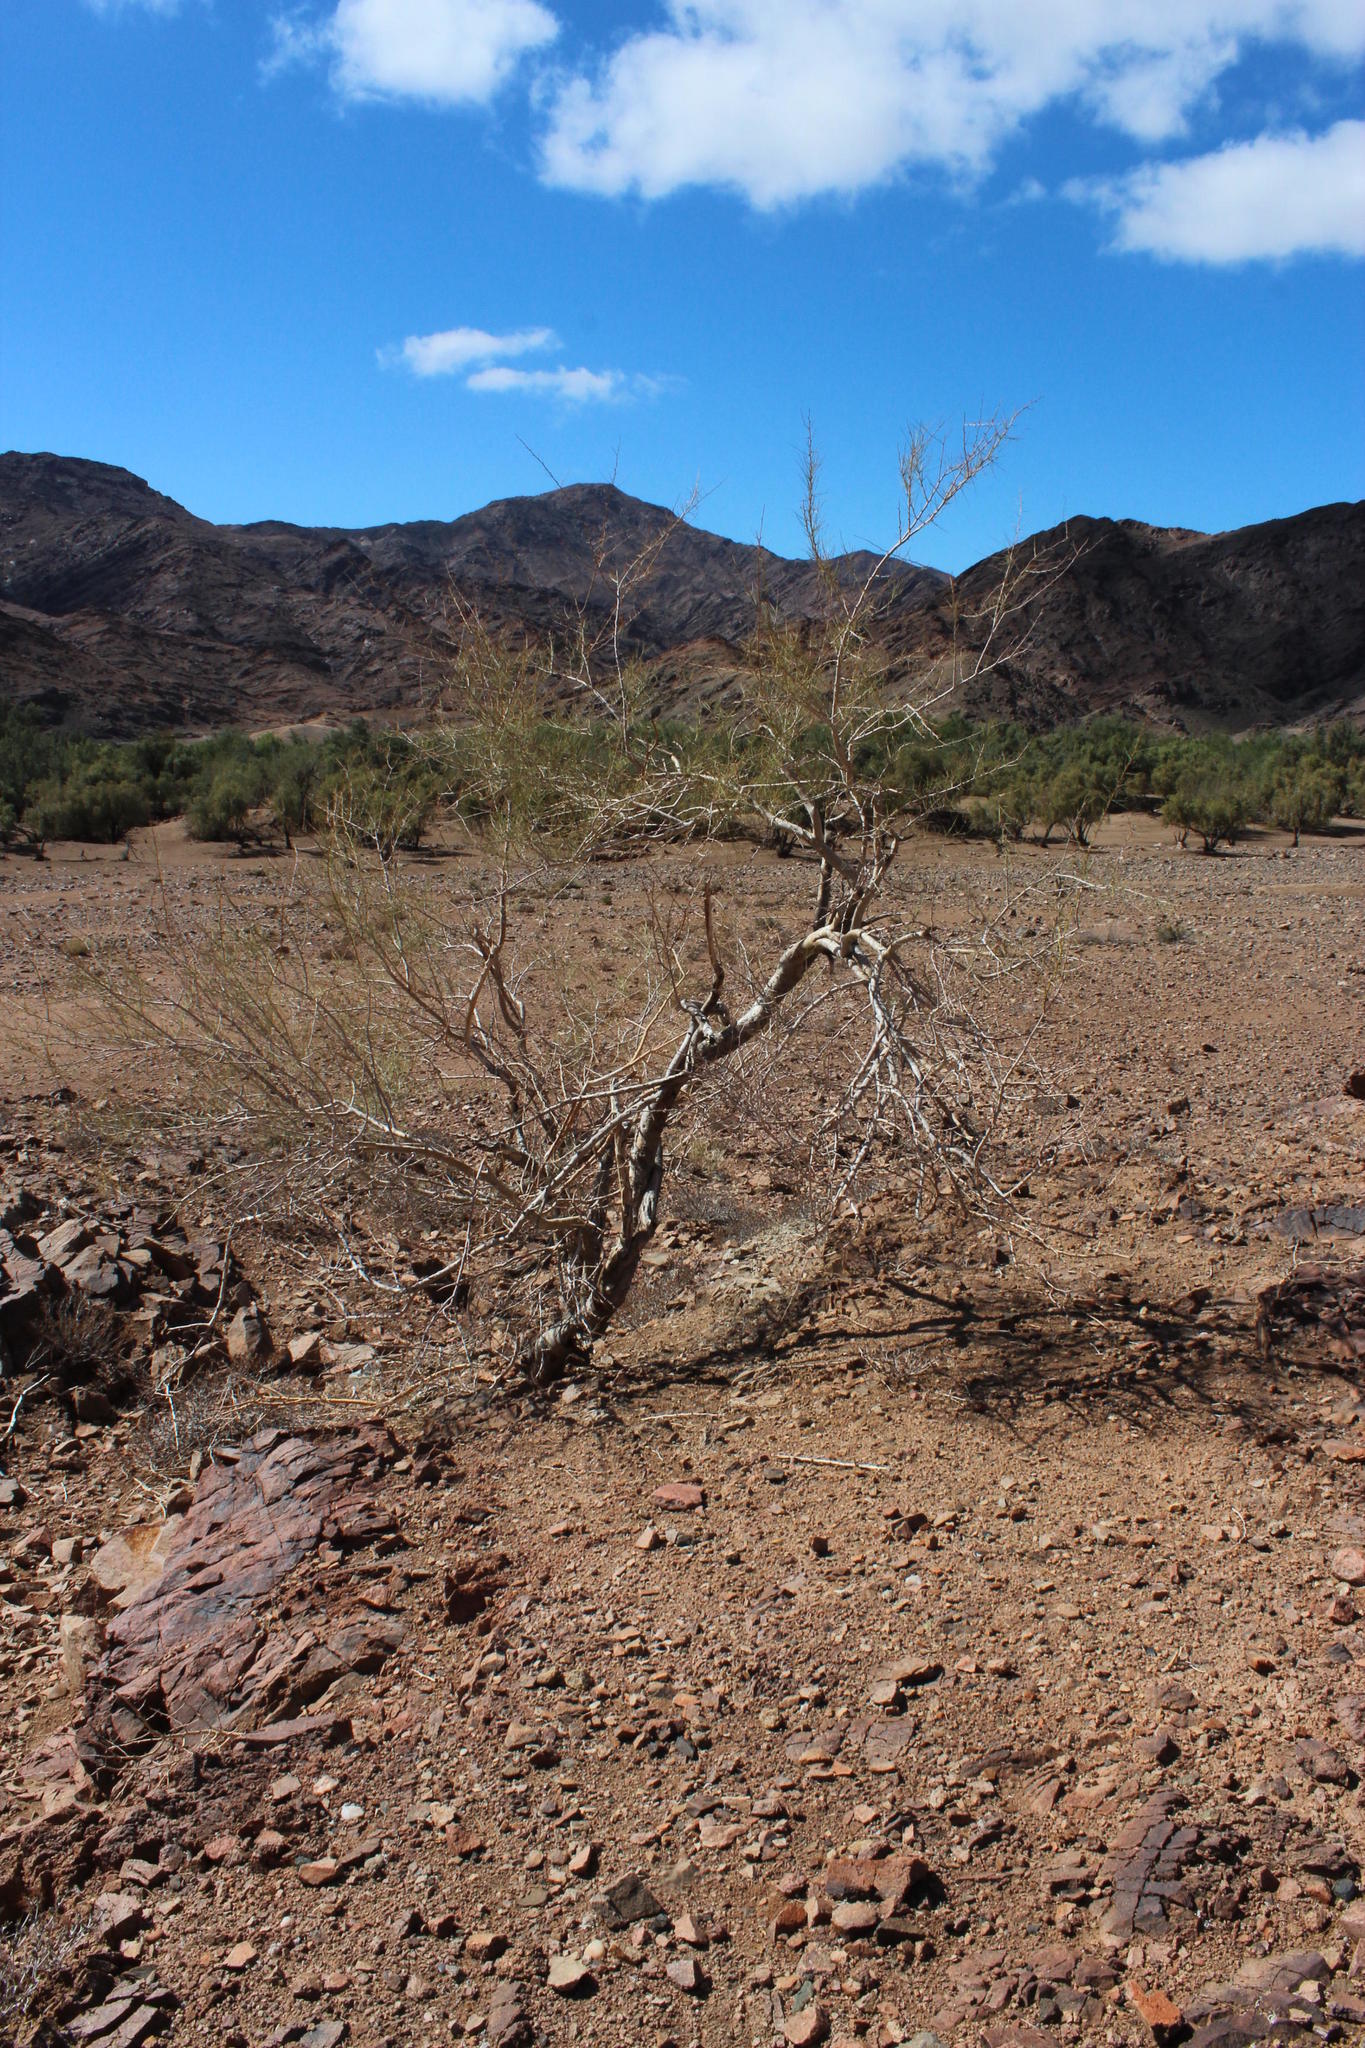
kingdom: Plantae
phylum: Tracheophyta
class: Magnoliopsida
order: Fabales
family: Fabaceae
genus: Parkinsonia
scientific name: Parkinsonia africana
